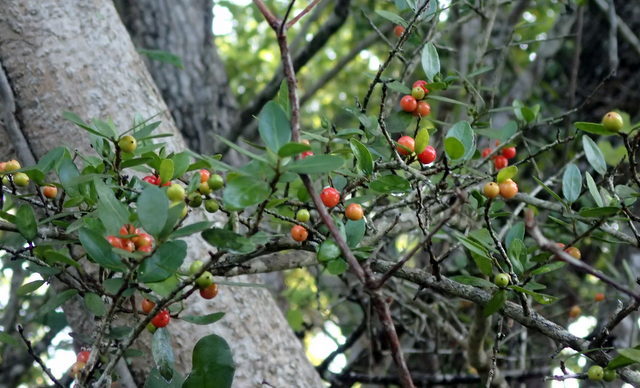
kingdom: Plantae
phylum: Tracheophyta
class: Magnoliopsida
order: Aquifoliales
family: Aquifoliaceae
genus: Ilex
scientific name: Ilex vomitoria
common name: Yaupon holly
